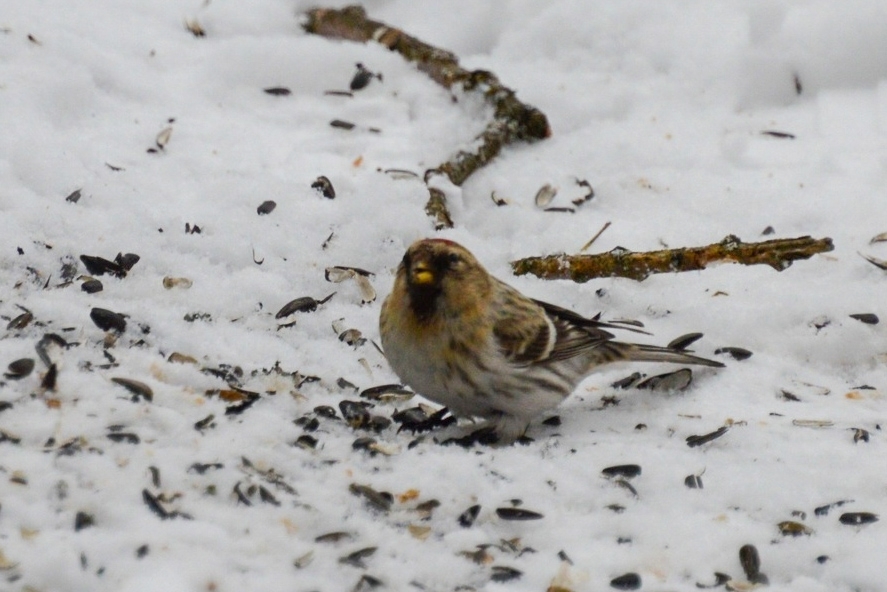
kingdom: Animalia
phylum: Chordata
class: Aves
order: Passeriformes
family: Fringillidae
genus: Acanthis
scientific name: Acanthis flammea
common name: Common redpoll
